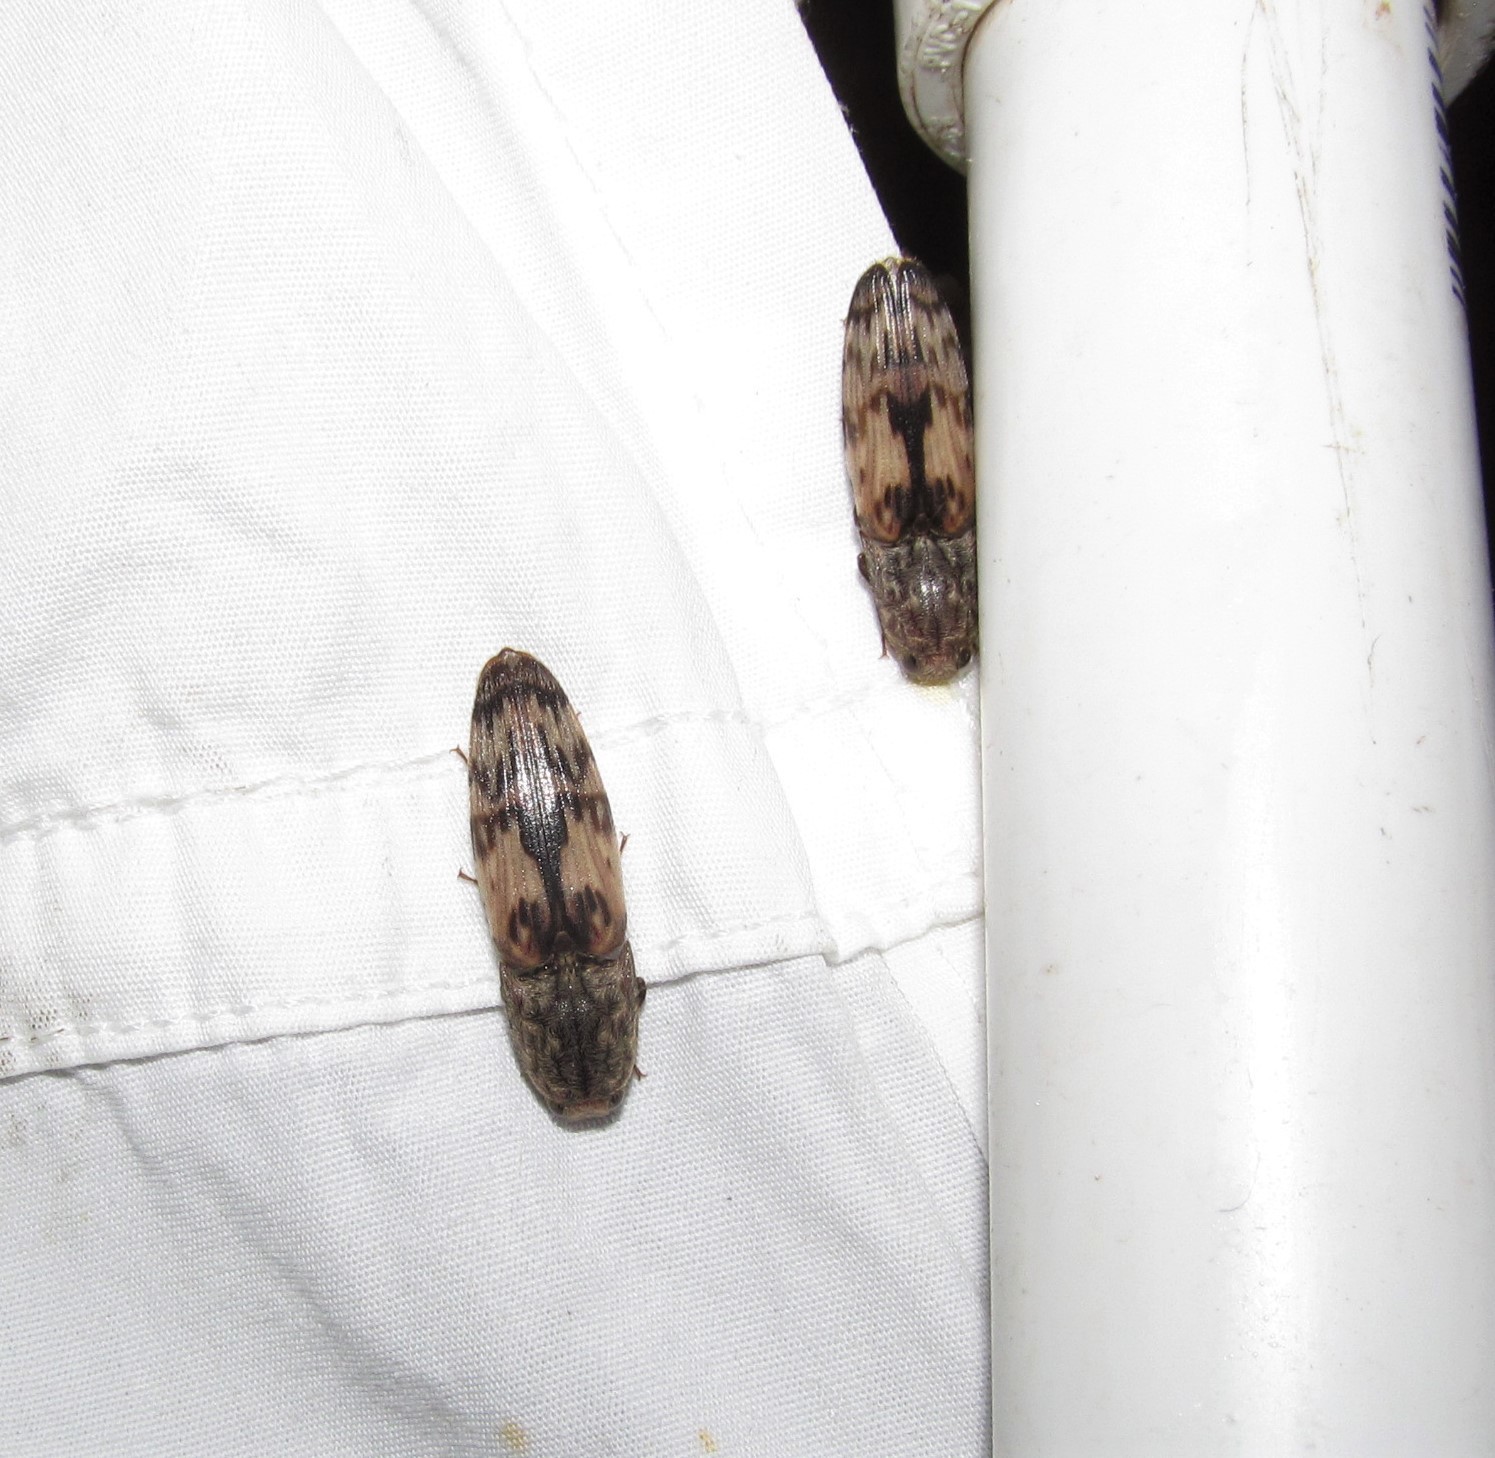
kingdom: Animalia
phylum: Arthropoda
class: Insecta
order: Coleoptera
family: Elateridae
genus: Pherhimius
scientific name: Pherhimius fascicularis
